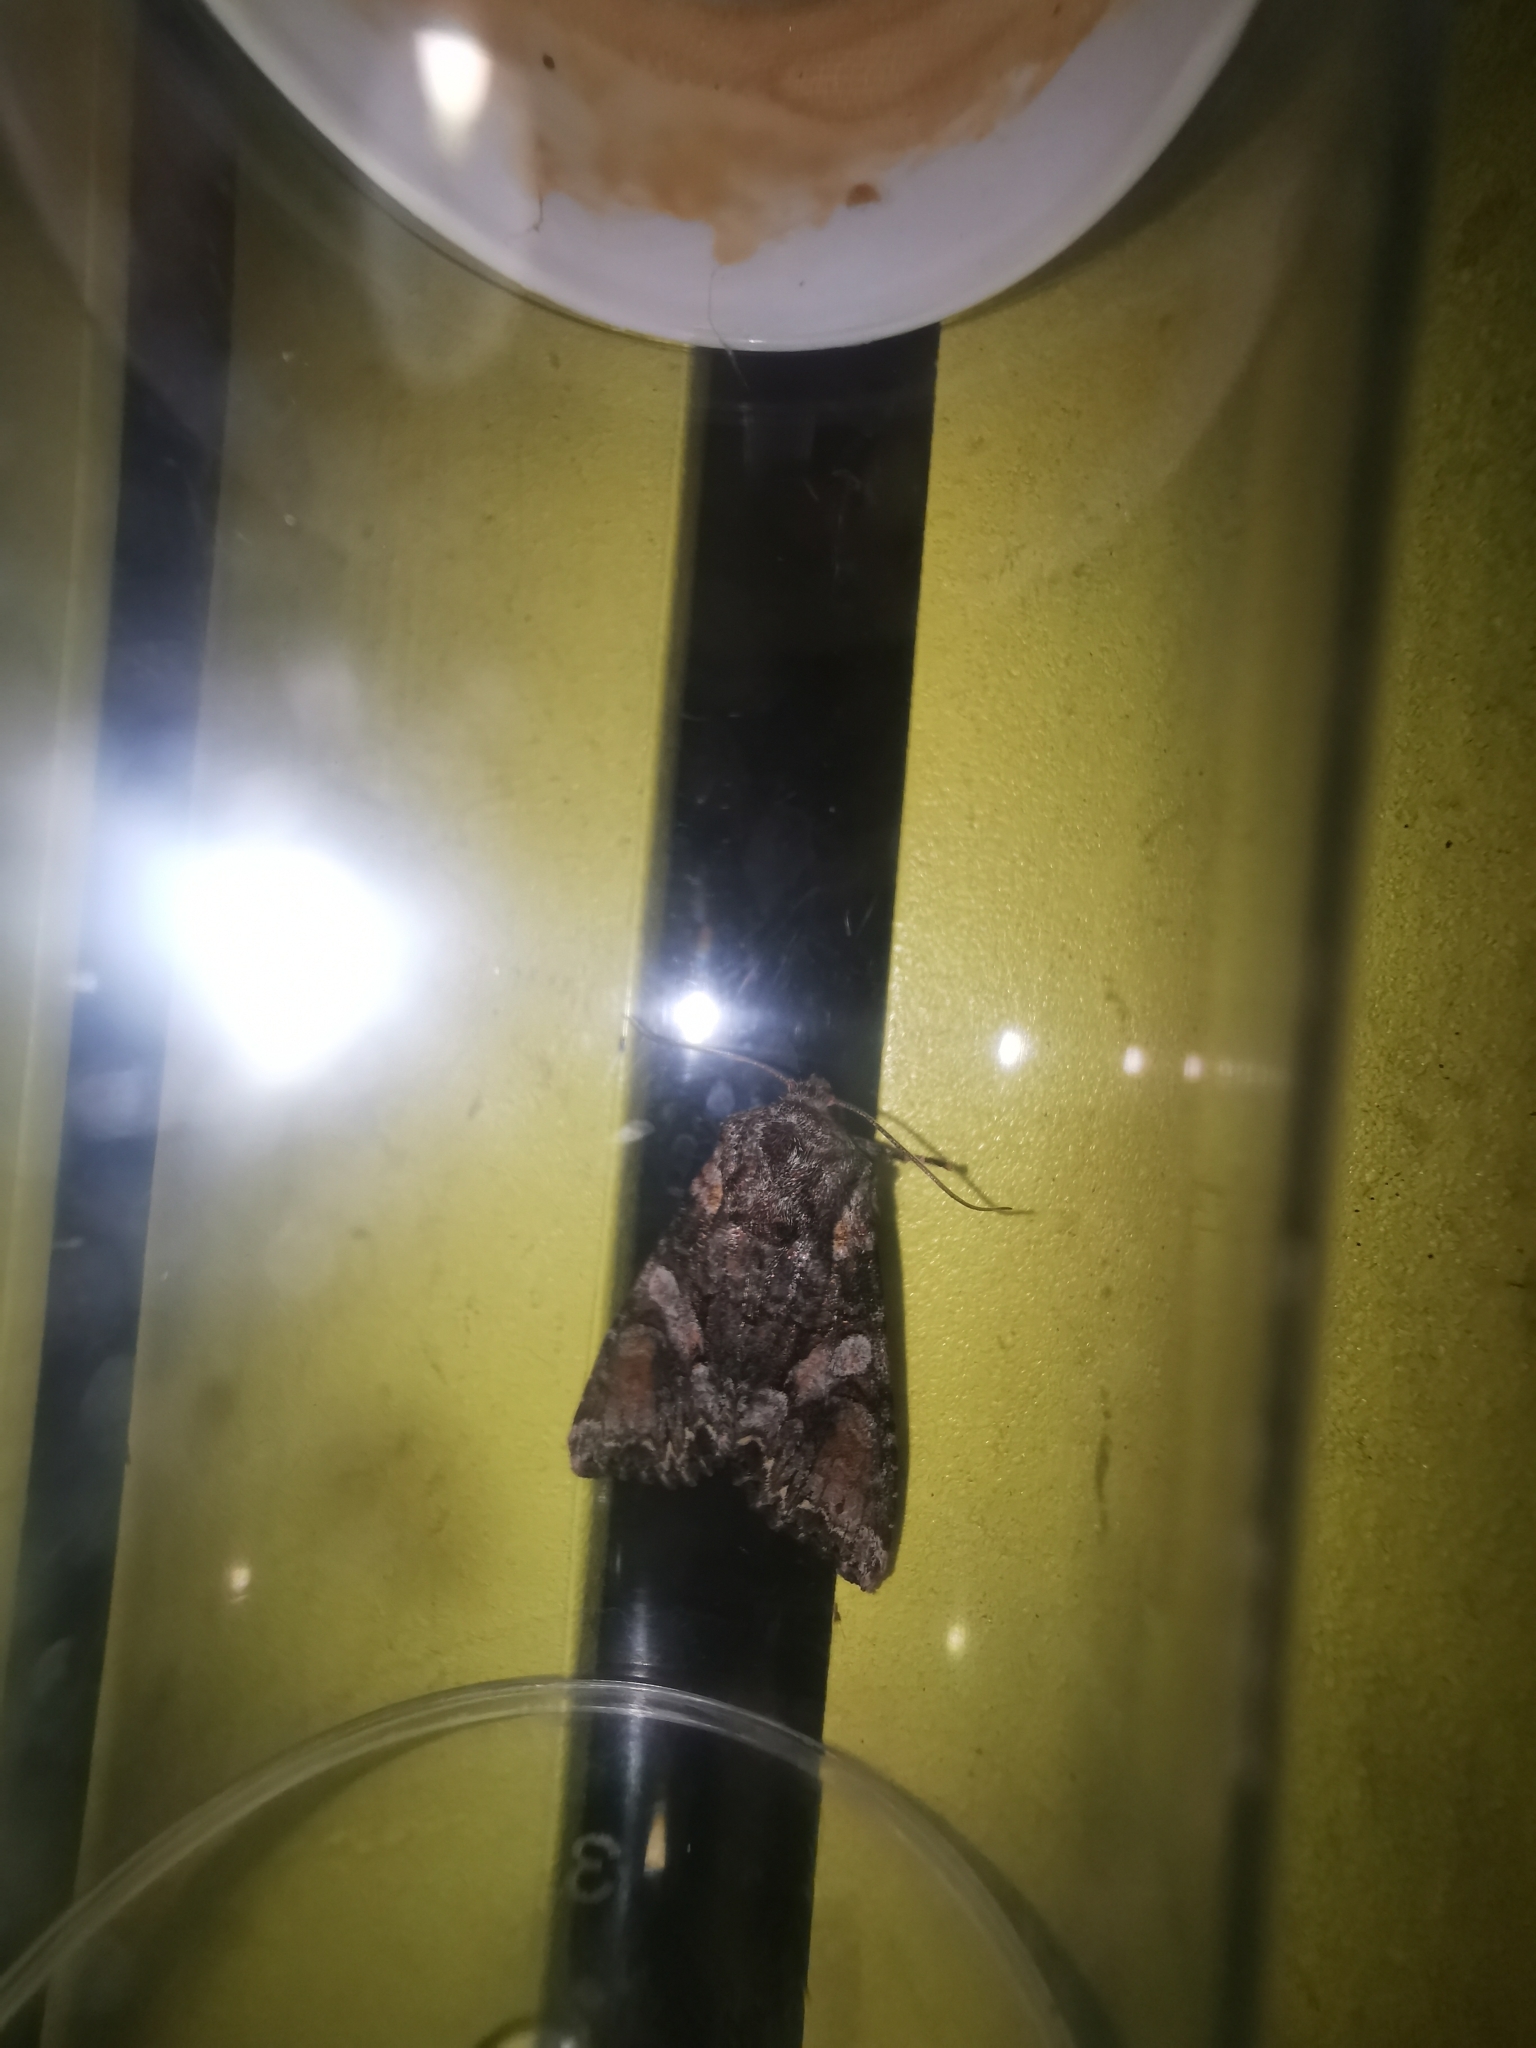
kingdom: Animalia
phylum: Arthropoda
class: Insecta
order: Lepidoptera
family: Noctuidae
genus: Lacanobia
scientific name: Lacanobia contigua
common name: Beautiful brocade
